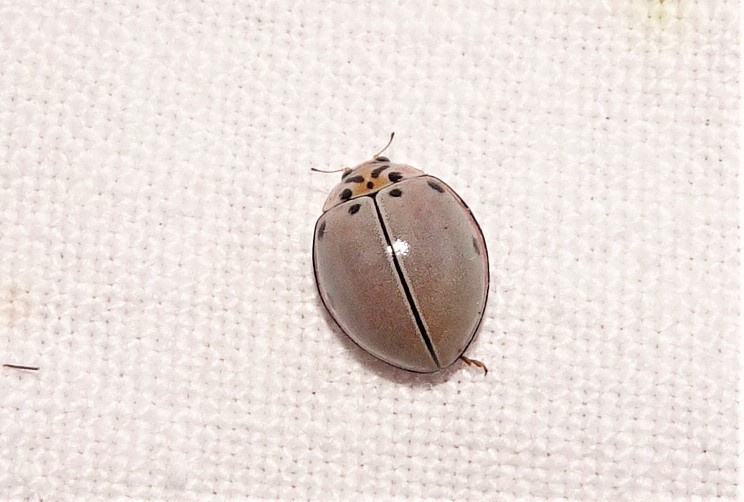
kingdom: Animalia
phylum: Arthropoda
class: Insecta
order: Coleoptera
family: Coccinellidae
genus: Archegleis
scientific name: Archegleis
